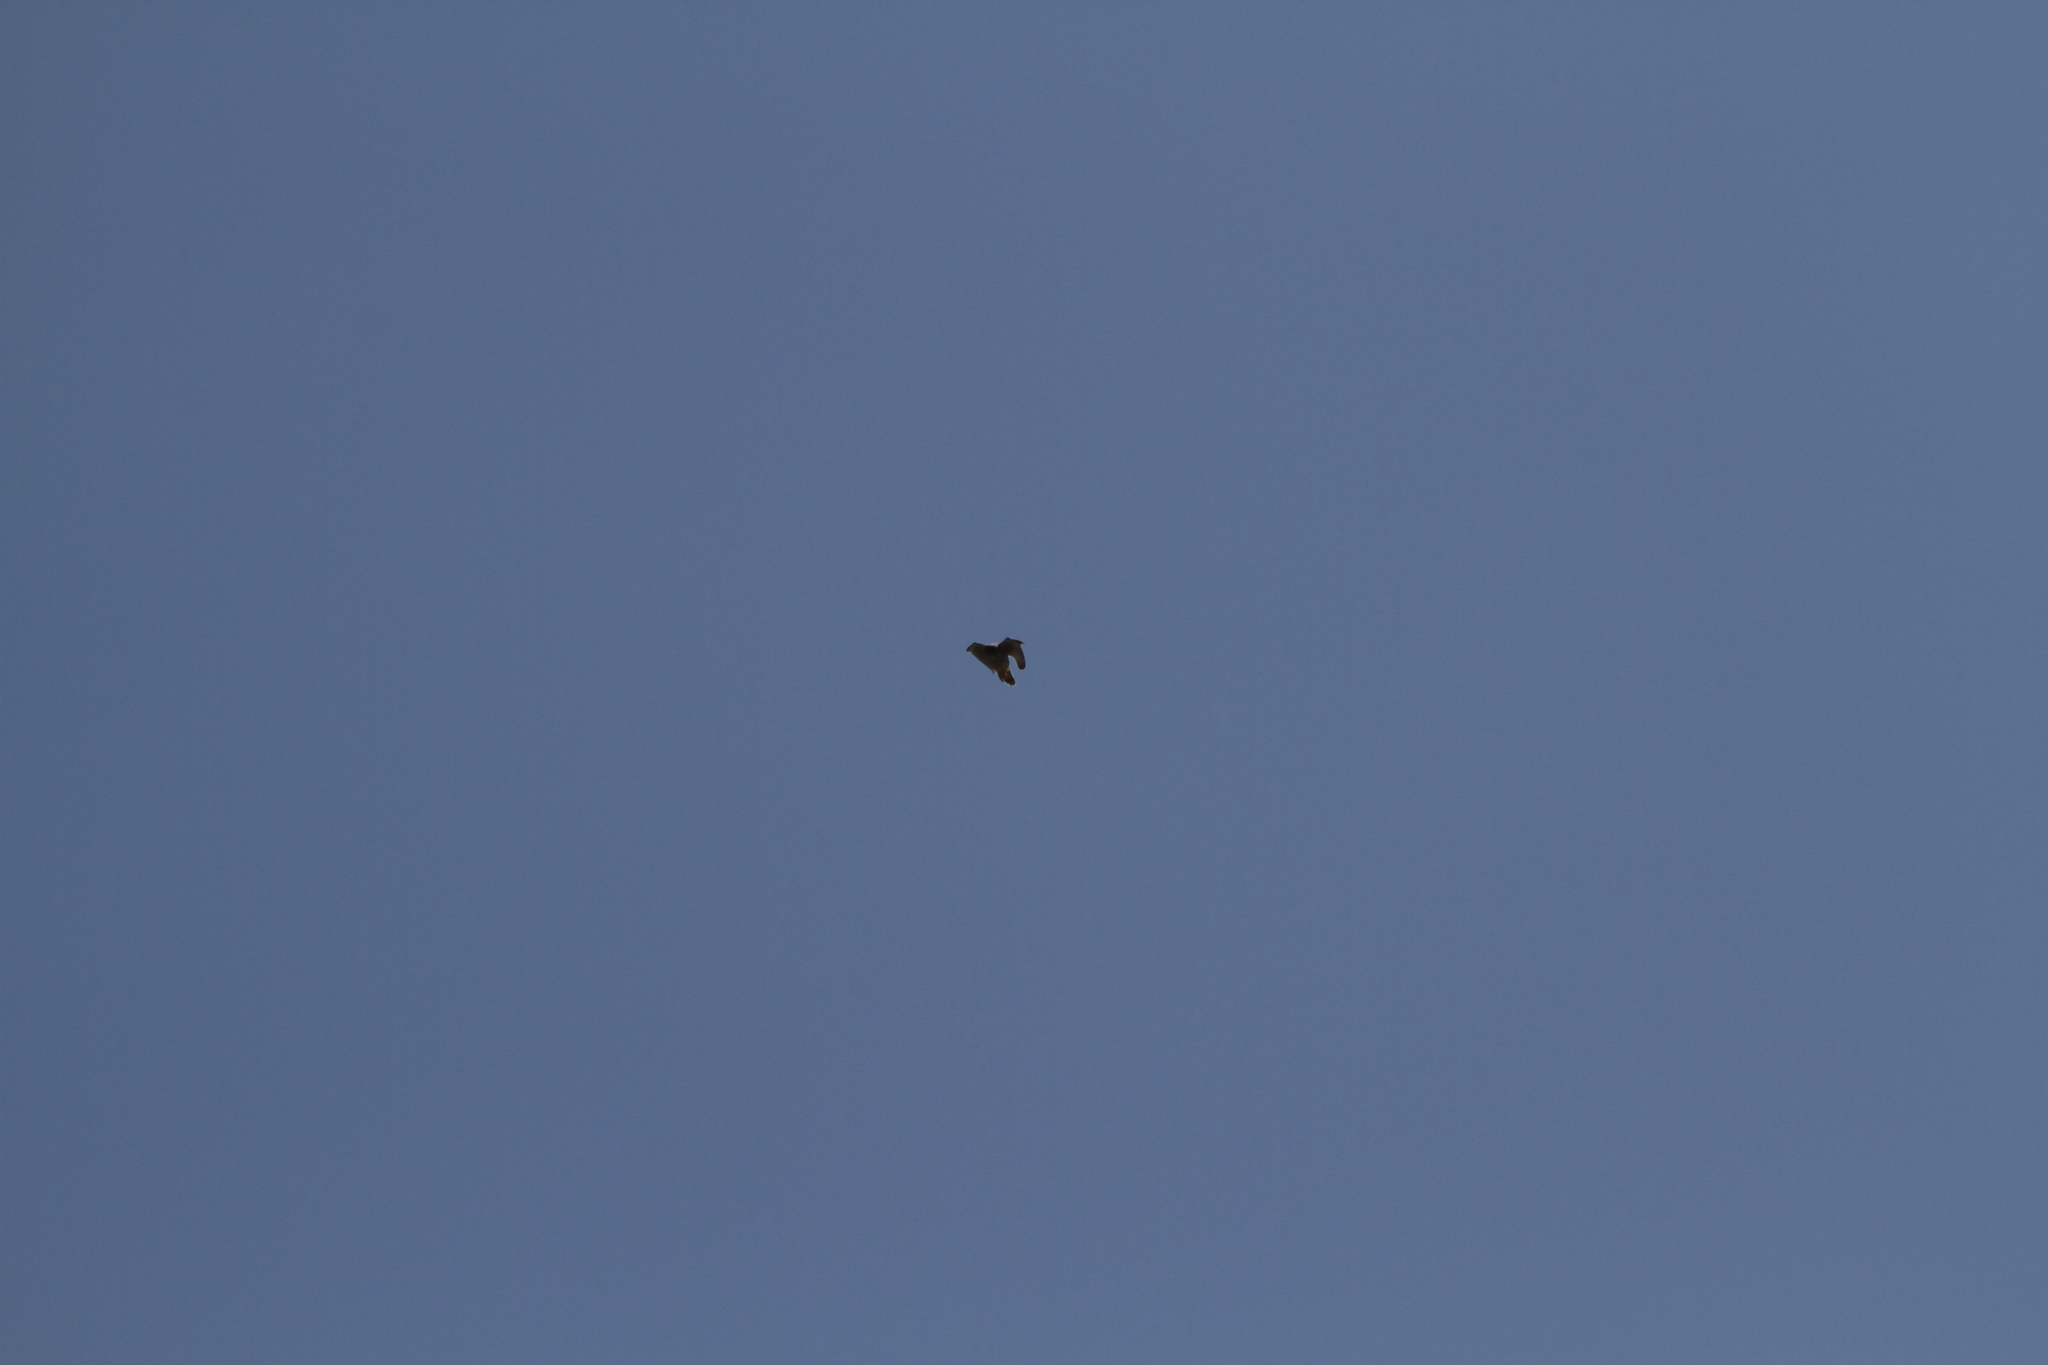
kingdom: Animalia
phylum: Chordata
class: Aves
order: Falconiformes
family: Falconidae
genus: Falco
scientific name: Falco tinnunculus
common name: Common kestrel
